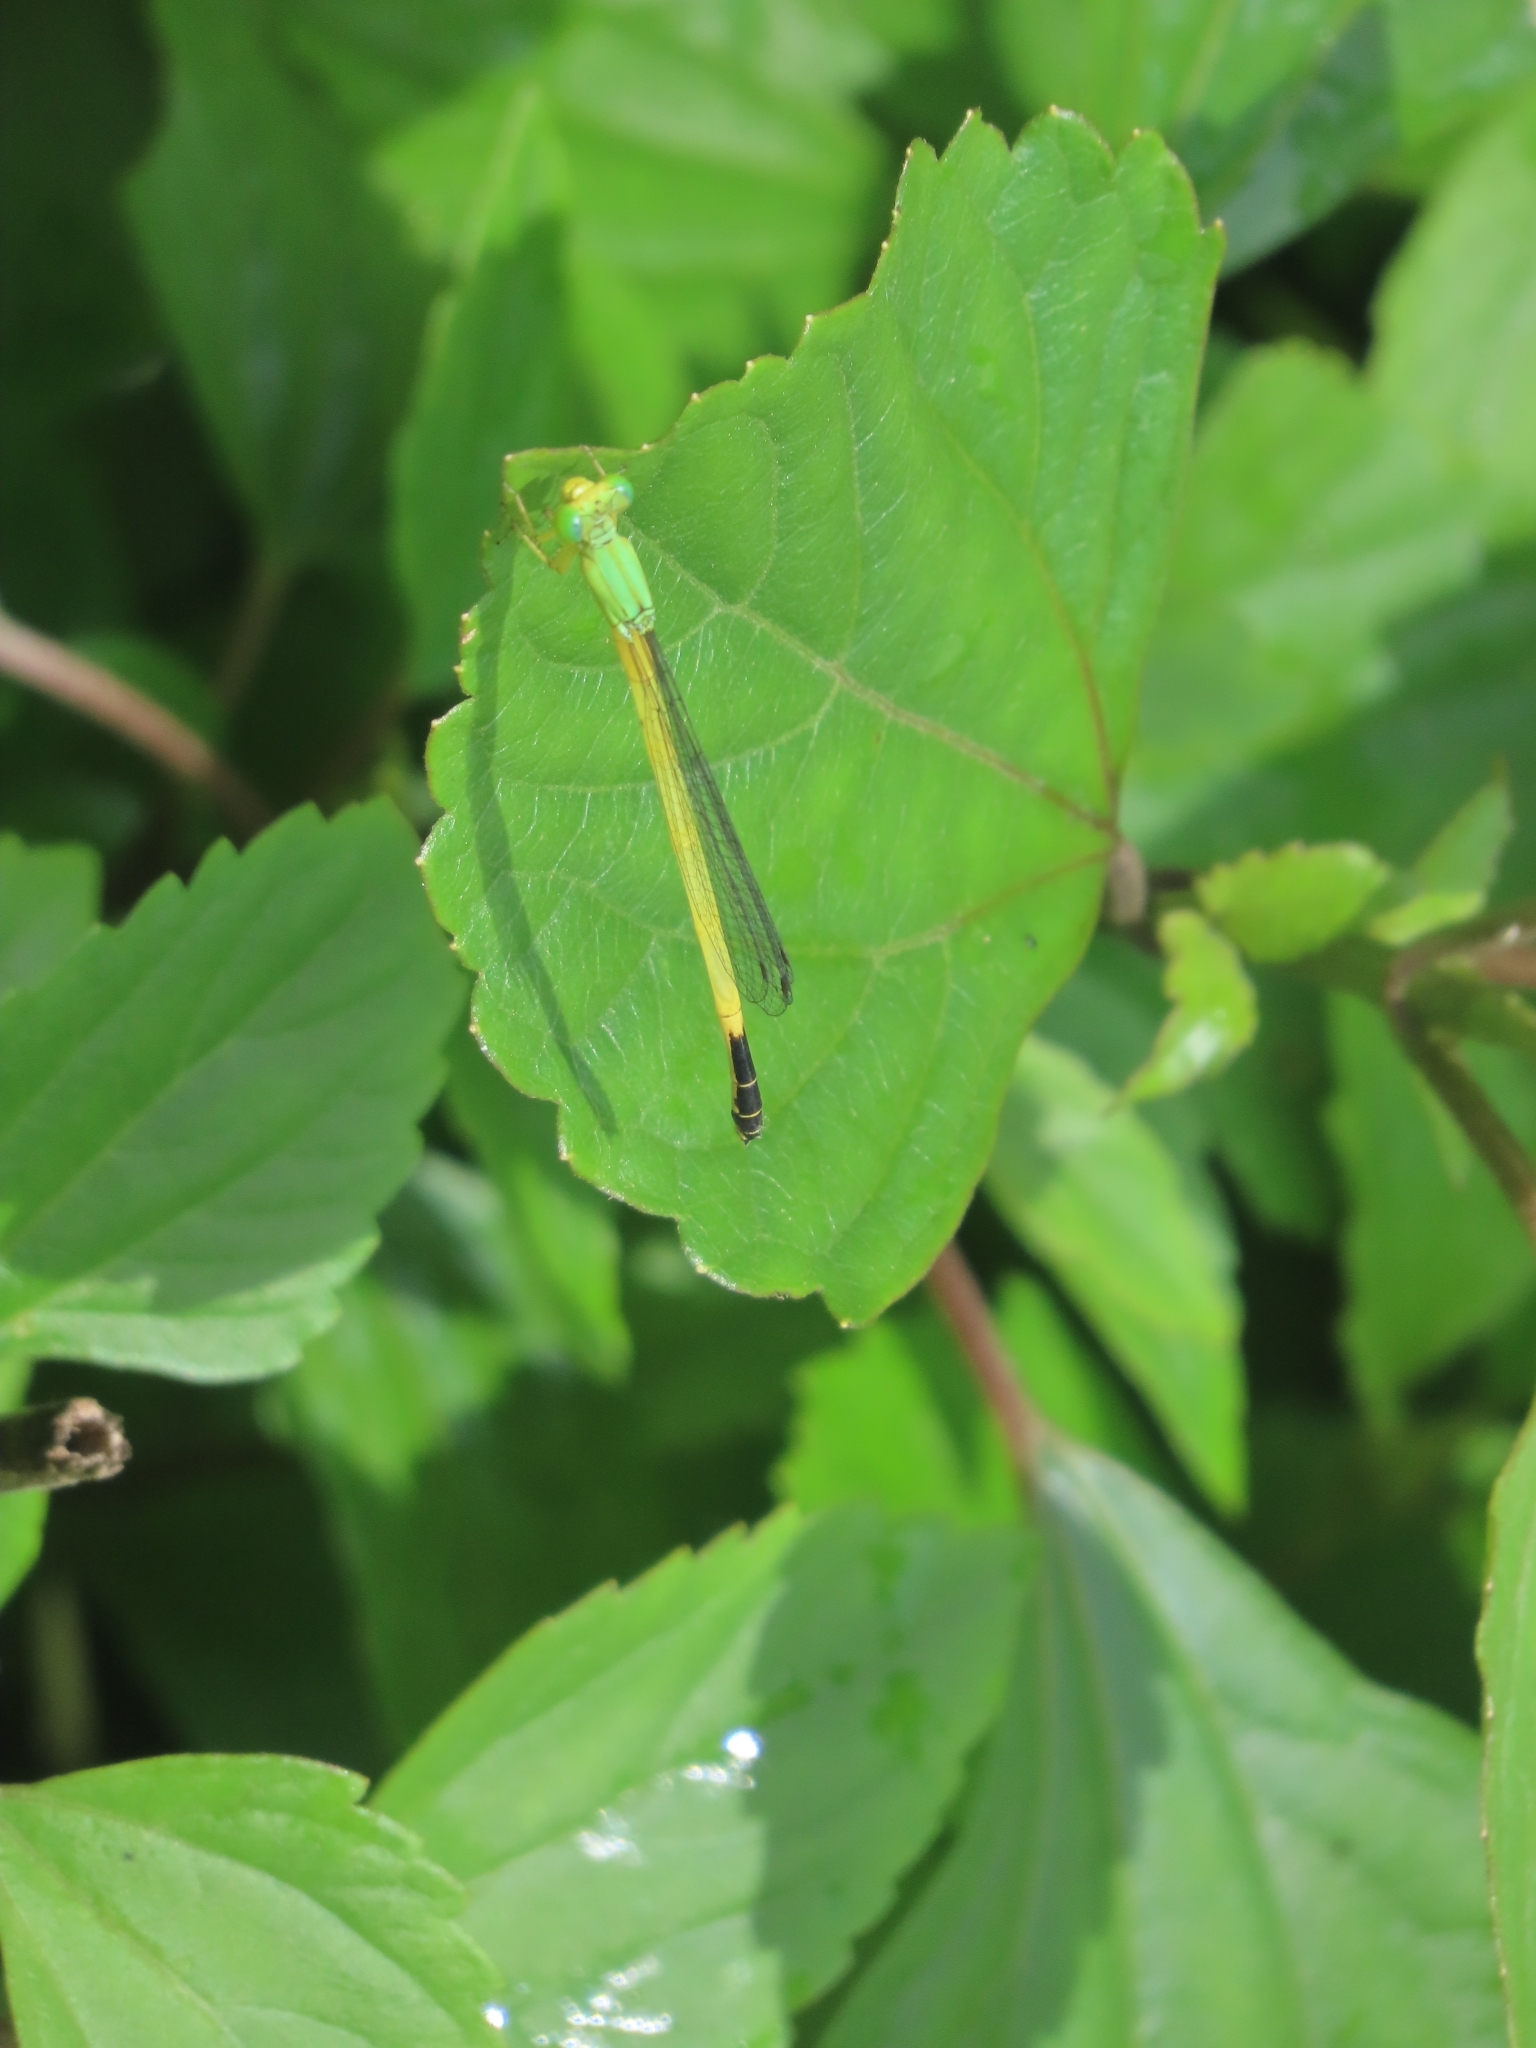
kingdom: Animalia
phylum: Arthropoda
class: Insecta
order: Odonata
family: Coenagrionidae
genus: Ceriagrion
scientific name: Ceriagrion fallax
